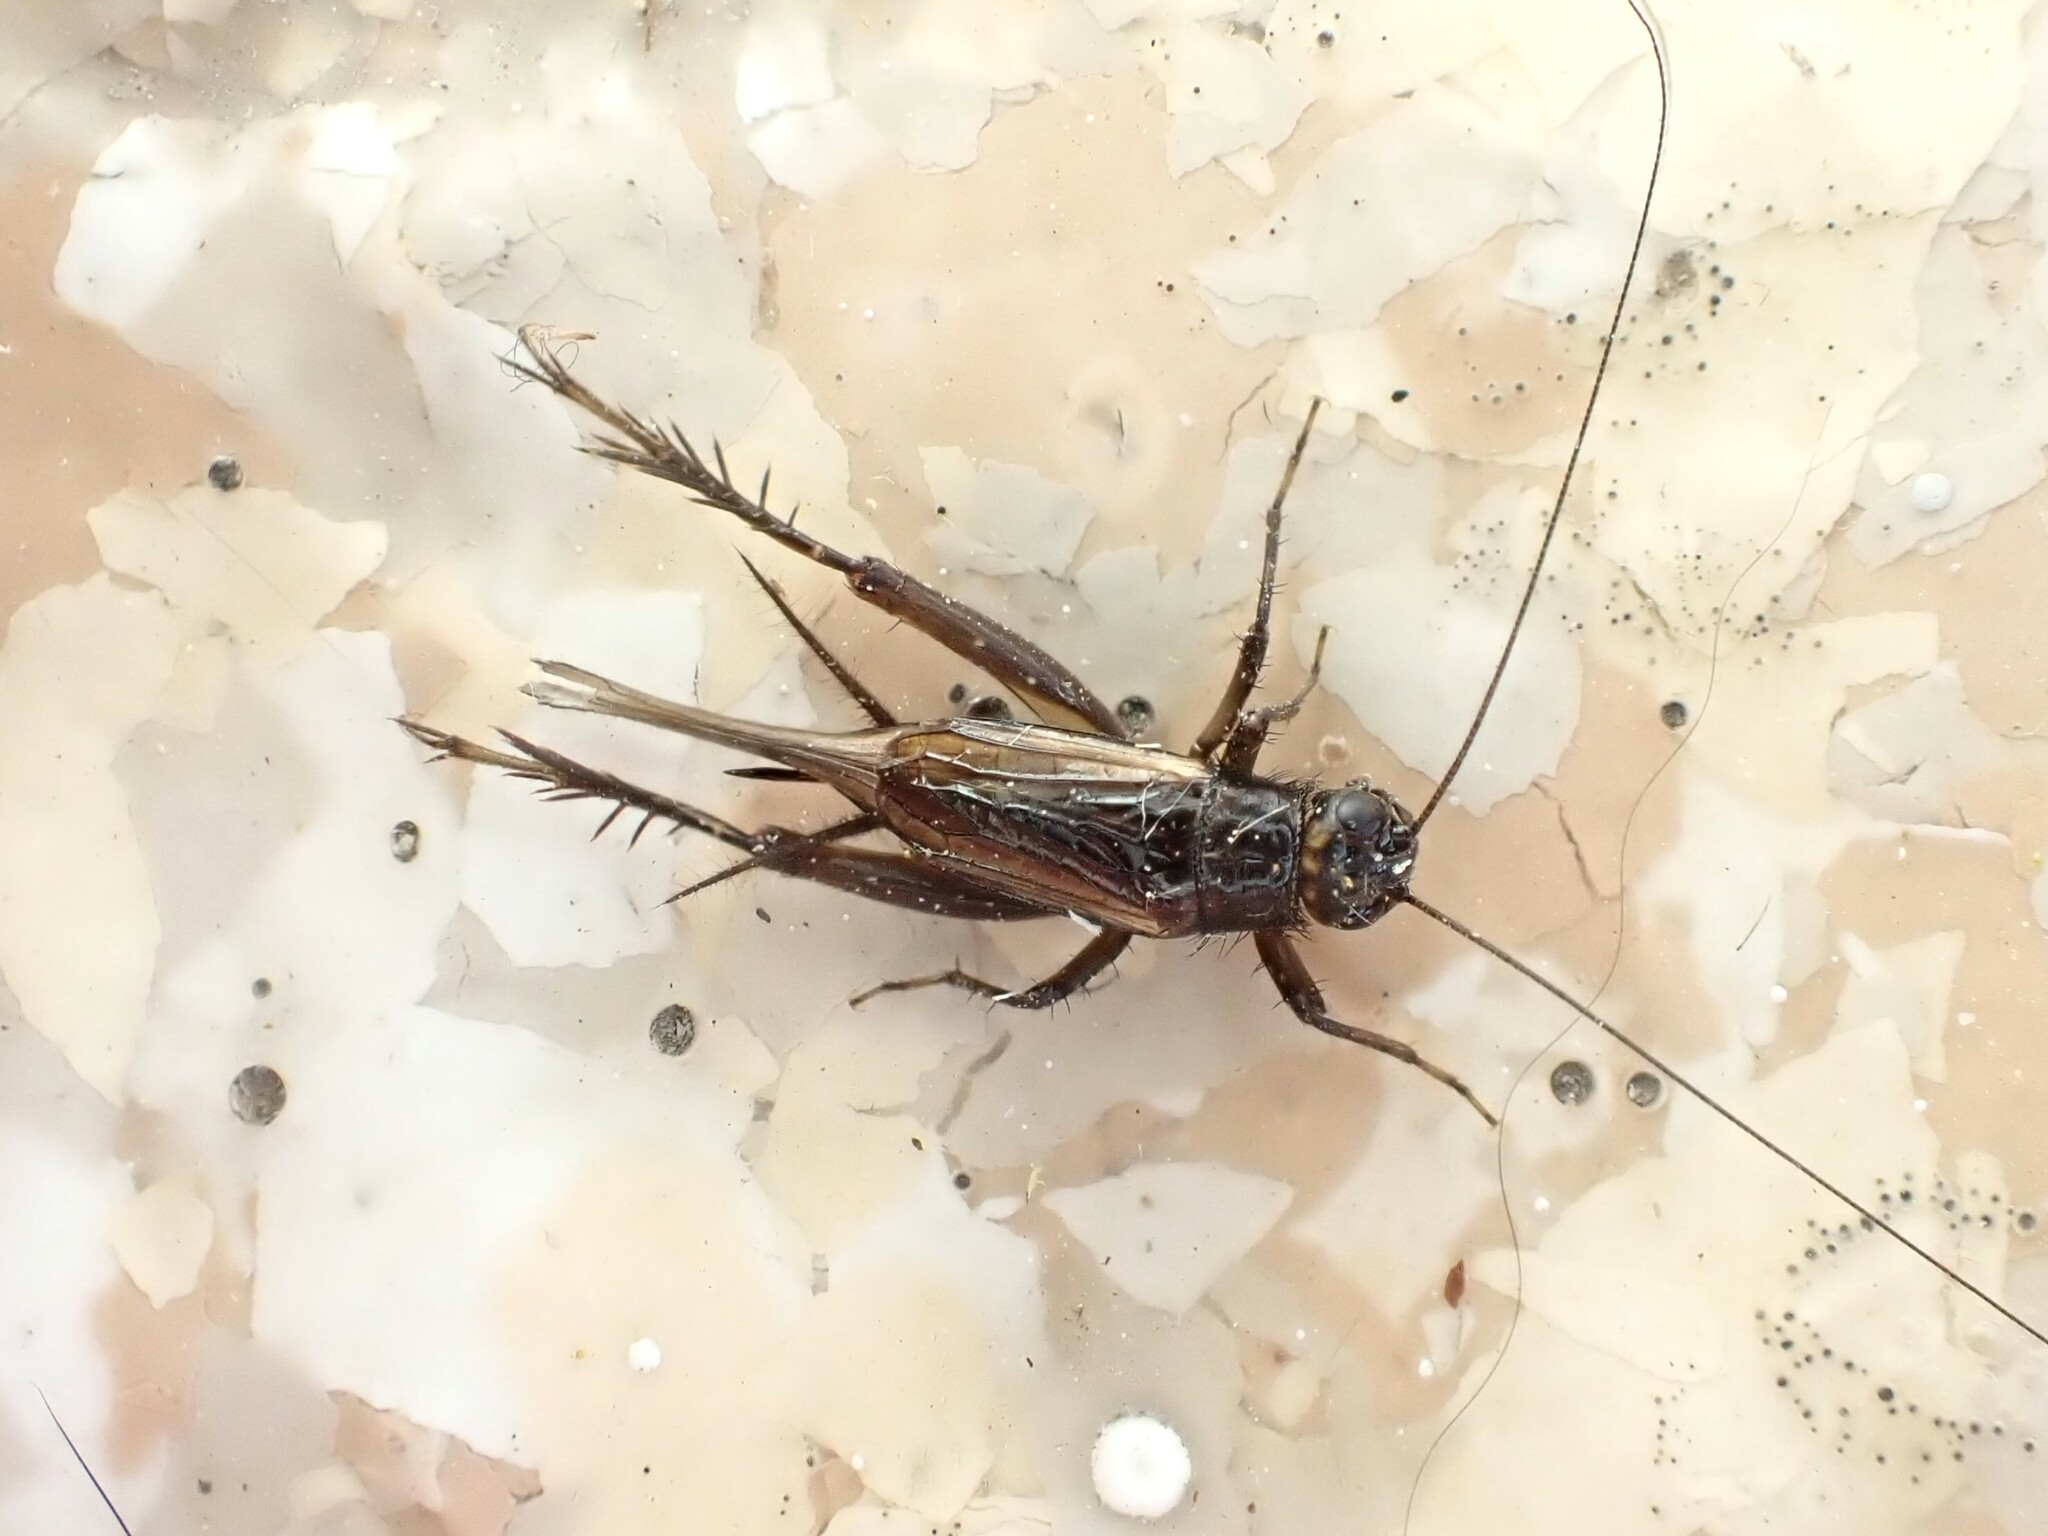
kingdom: Animalia
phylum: Arthropoda
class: Insecta
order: Orthoptera
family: Trigonidiidae
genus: Pteronemobius
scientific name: Pteronemobius truncatus
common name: Confusing pygmy cricket
